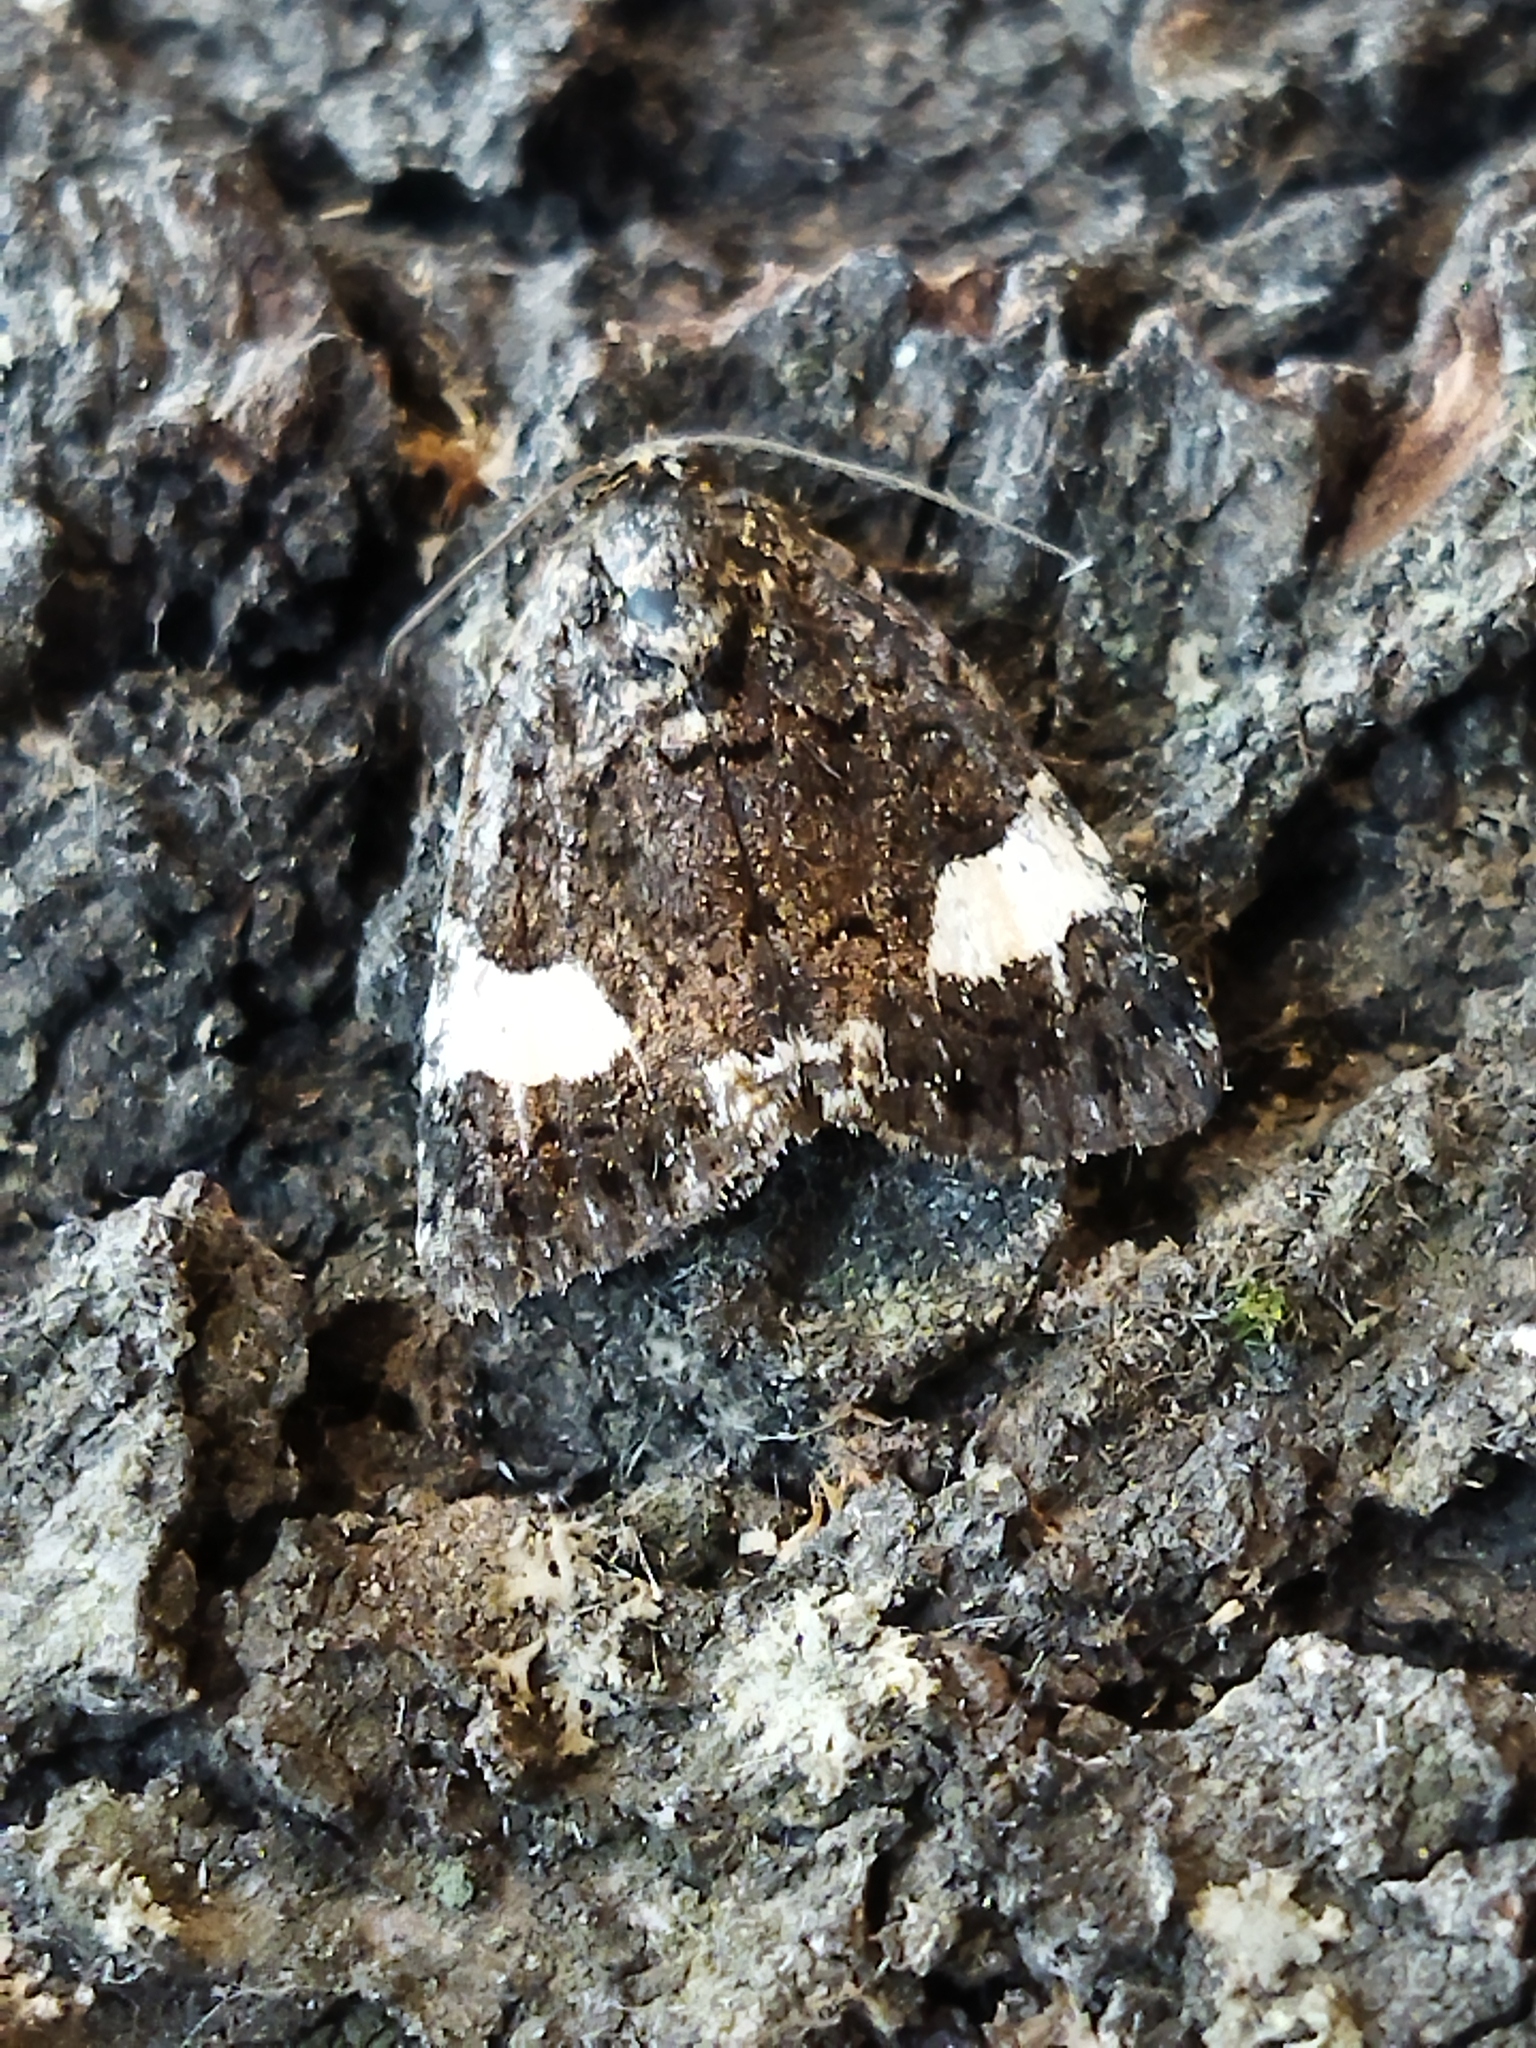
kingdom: Animalia
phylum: Arthropoda
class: Insecta
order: Lepidoptera
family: Erebidae
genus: Tyta
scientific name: Tyta luctuosa
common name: Four-spotted
